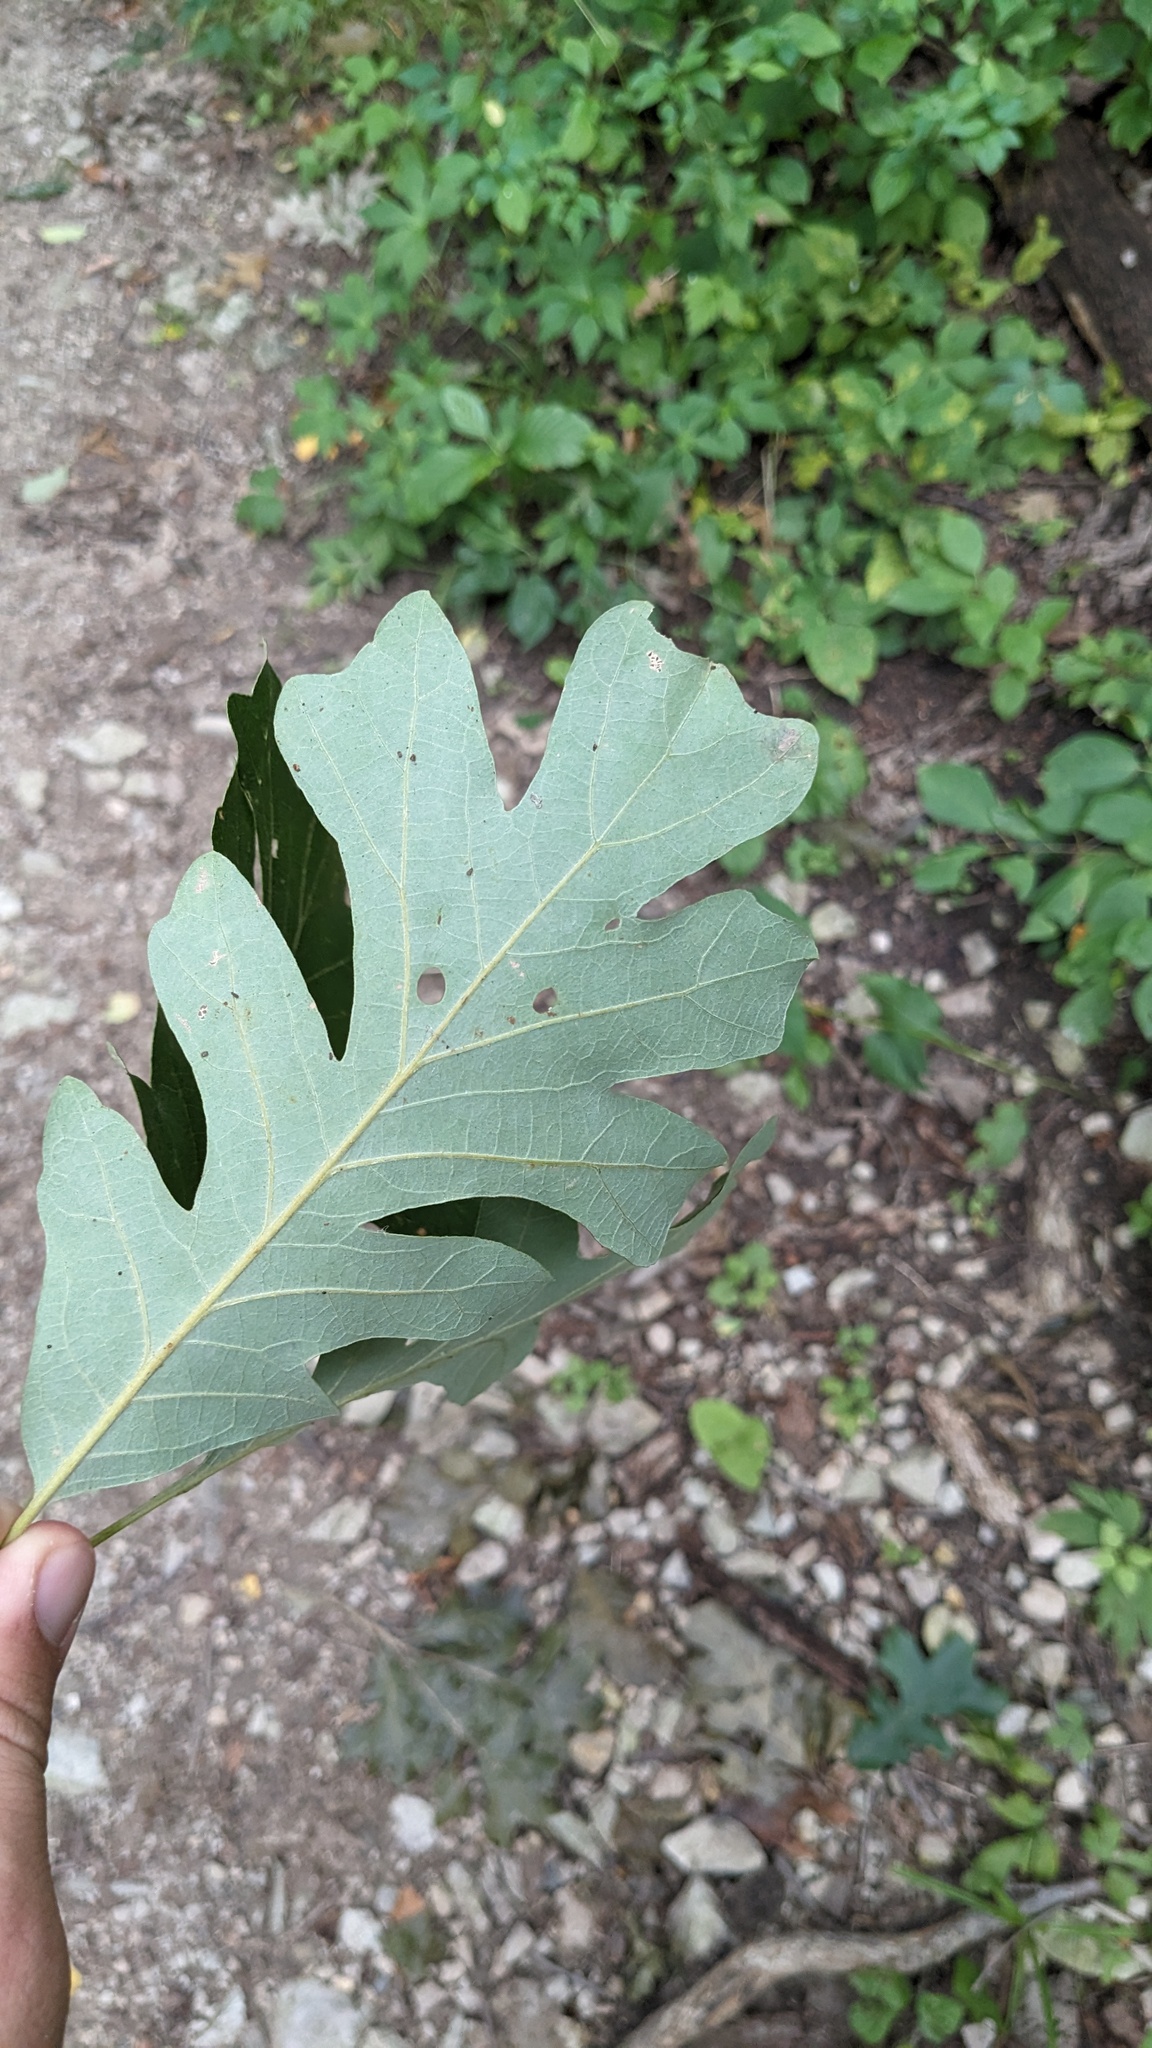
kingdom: Plantae
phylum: Tracheophyta
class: Magnoliopsida
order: Fagales
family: Fagaceae
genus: Quercus
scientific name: Quercus macrocarpa
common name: Bur oak
